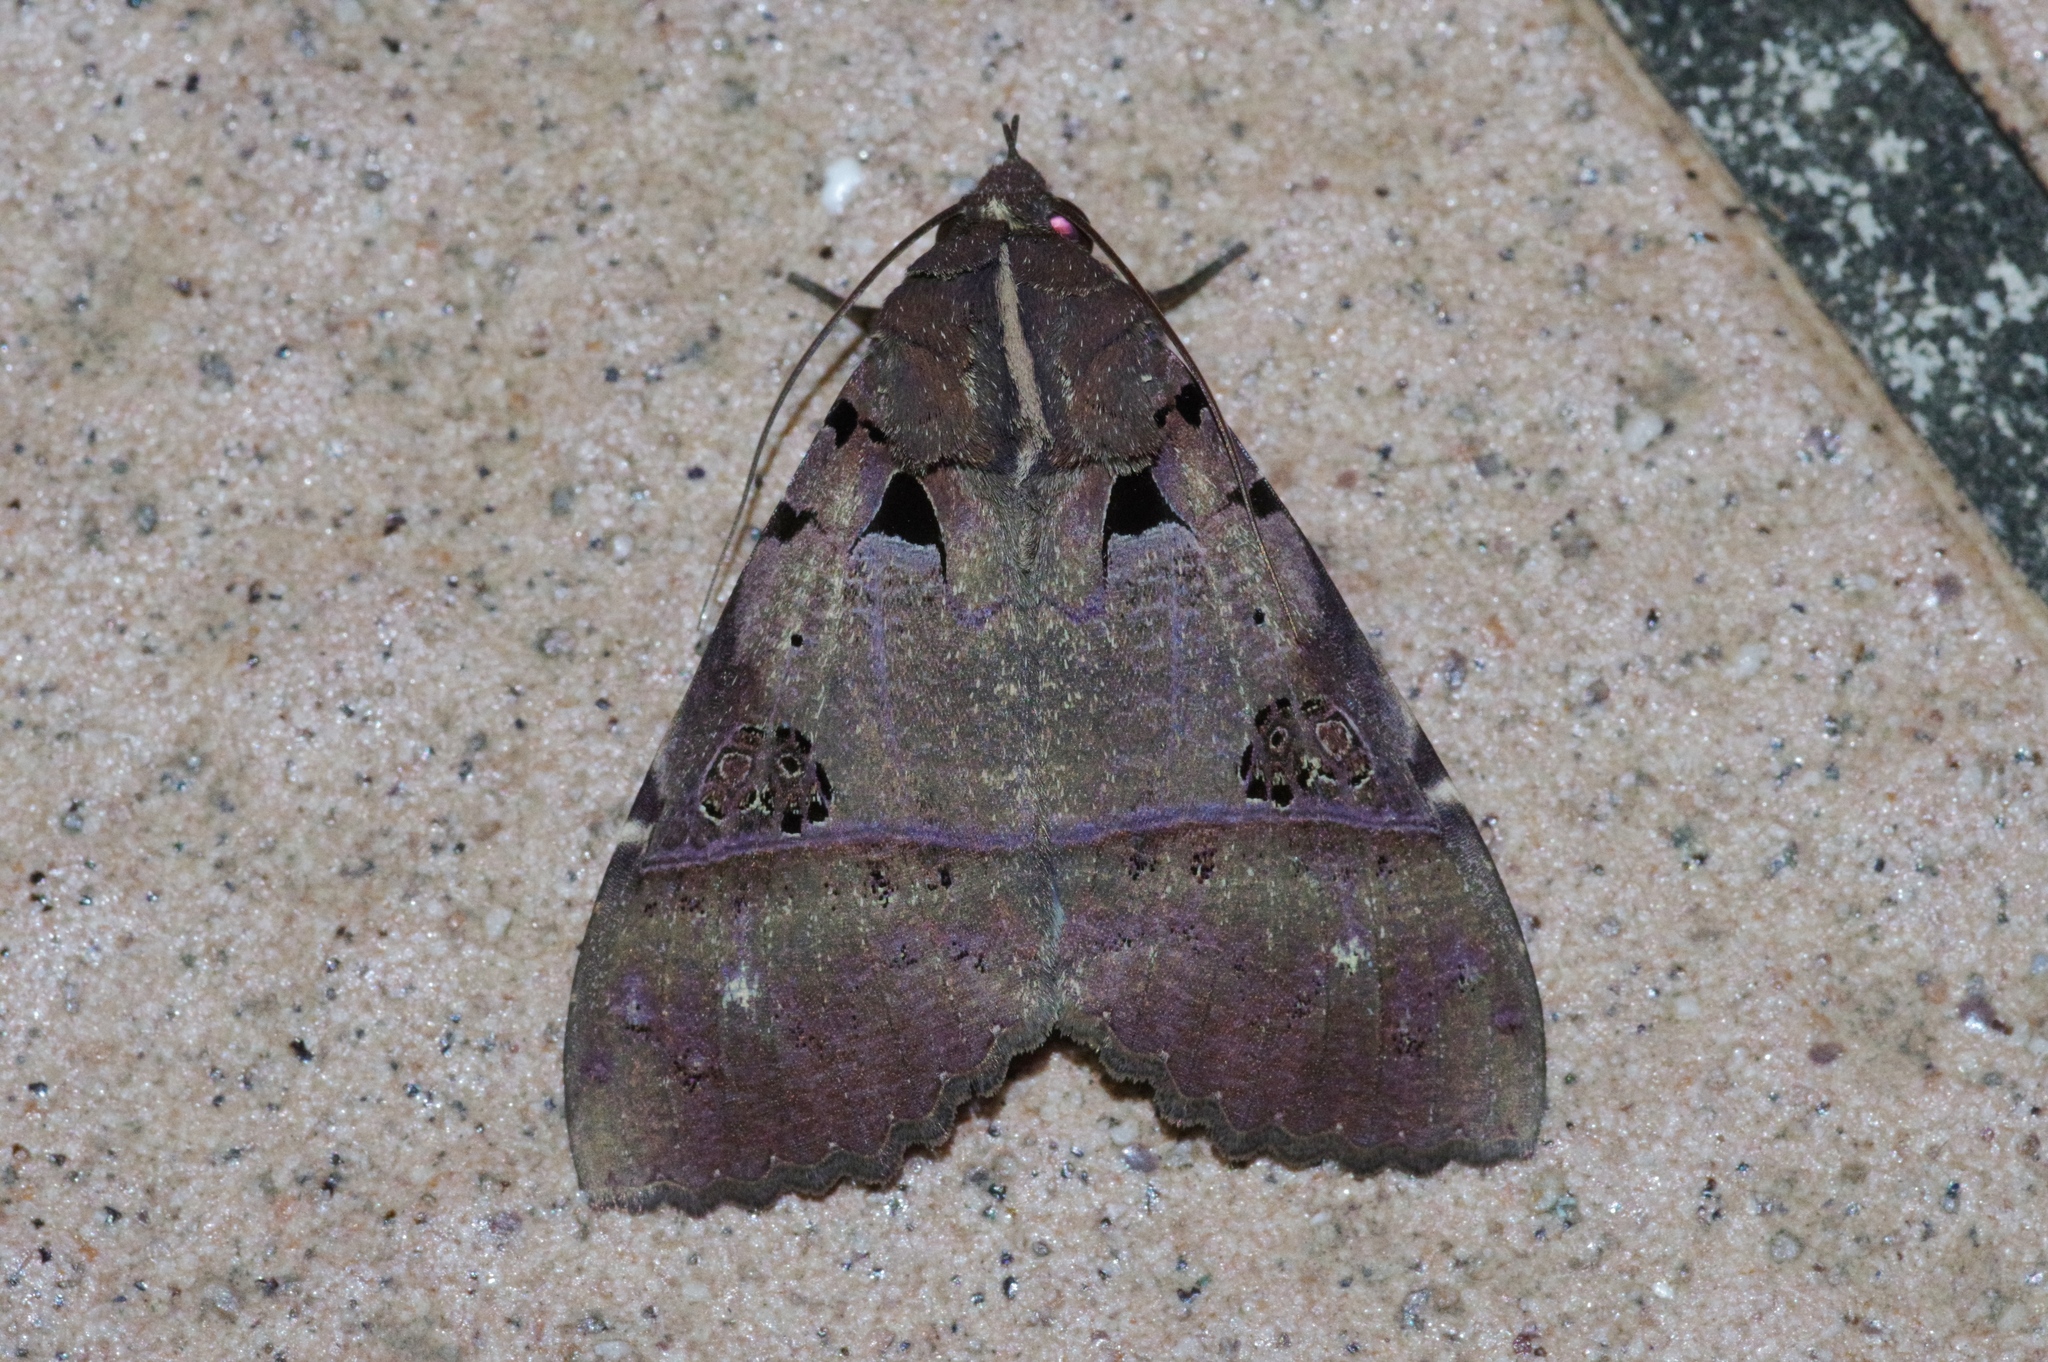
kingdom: Animalia
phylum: Arthropoda
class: Insecta
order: Lepidoptera
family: Erebidae
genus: Serrodes
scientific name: Serrodes campana
